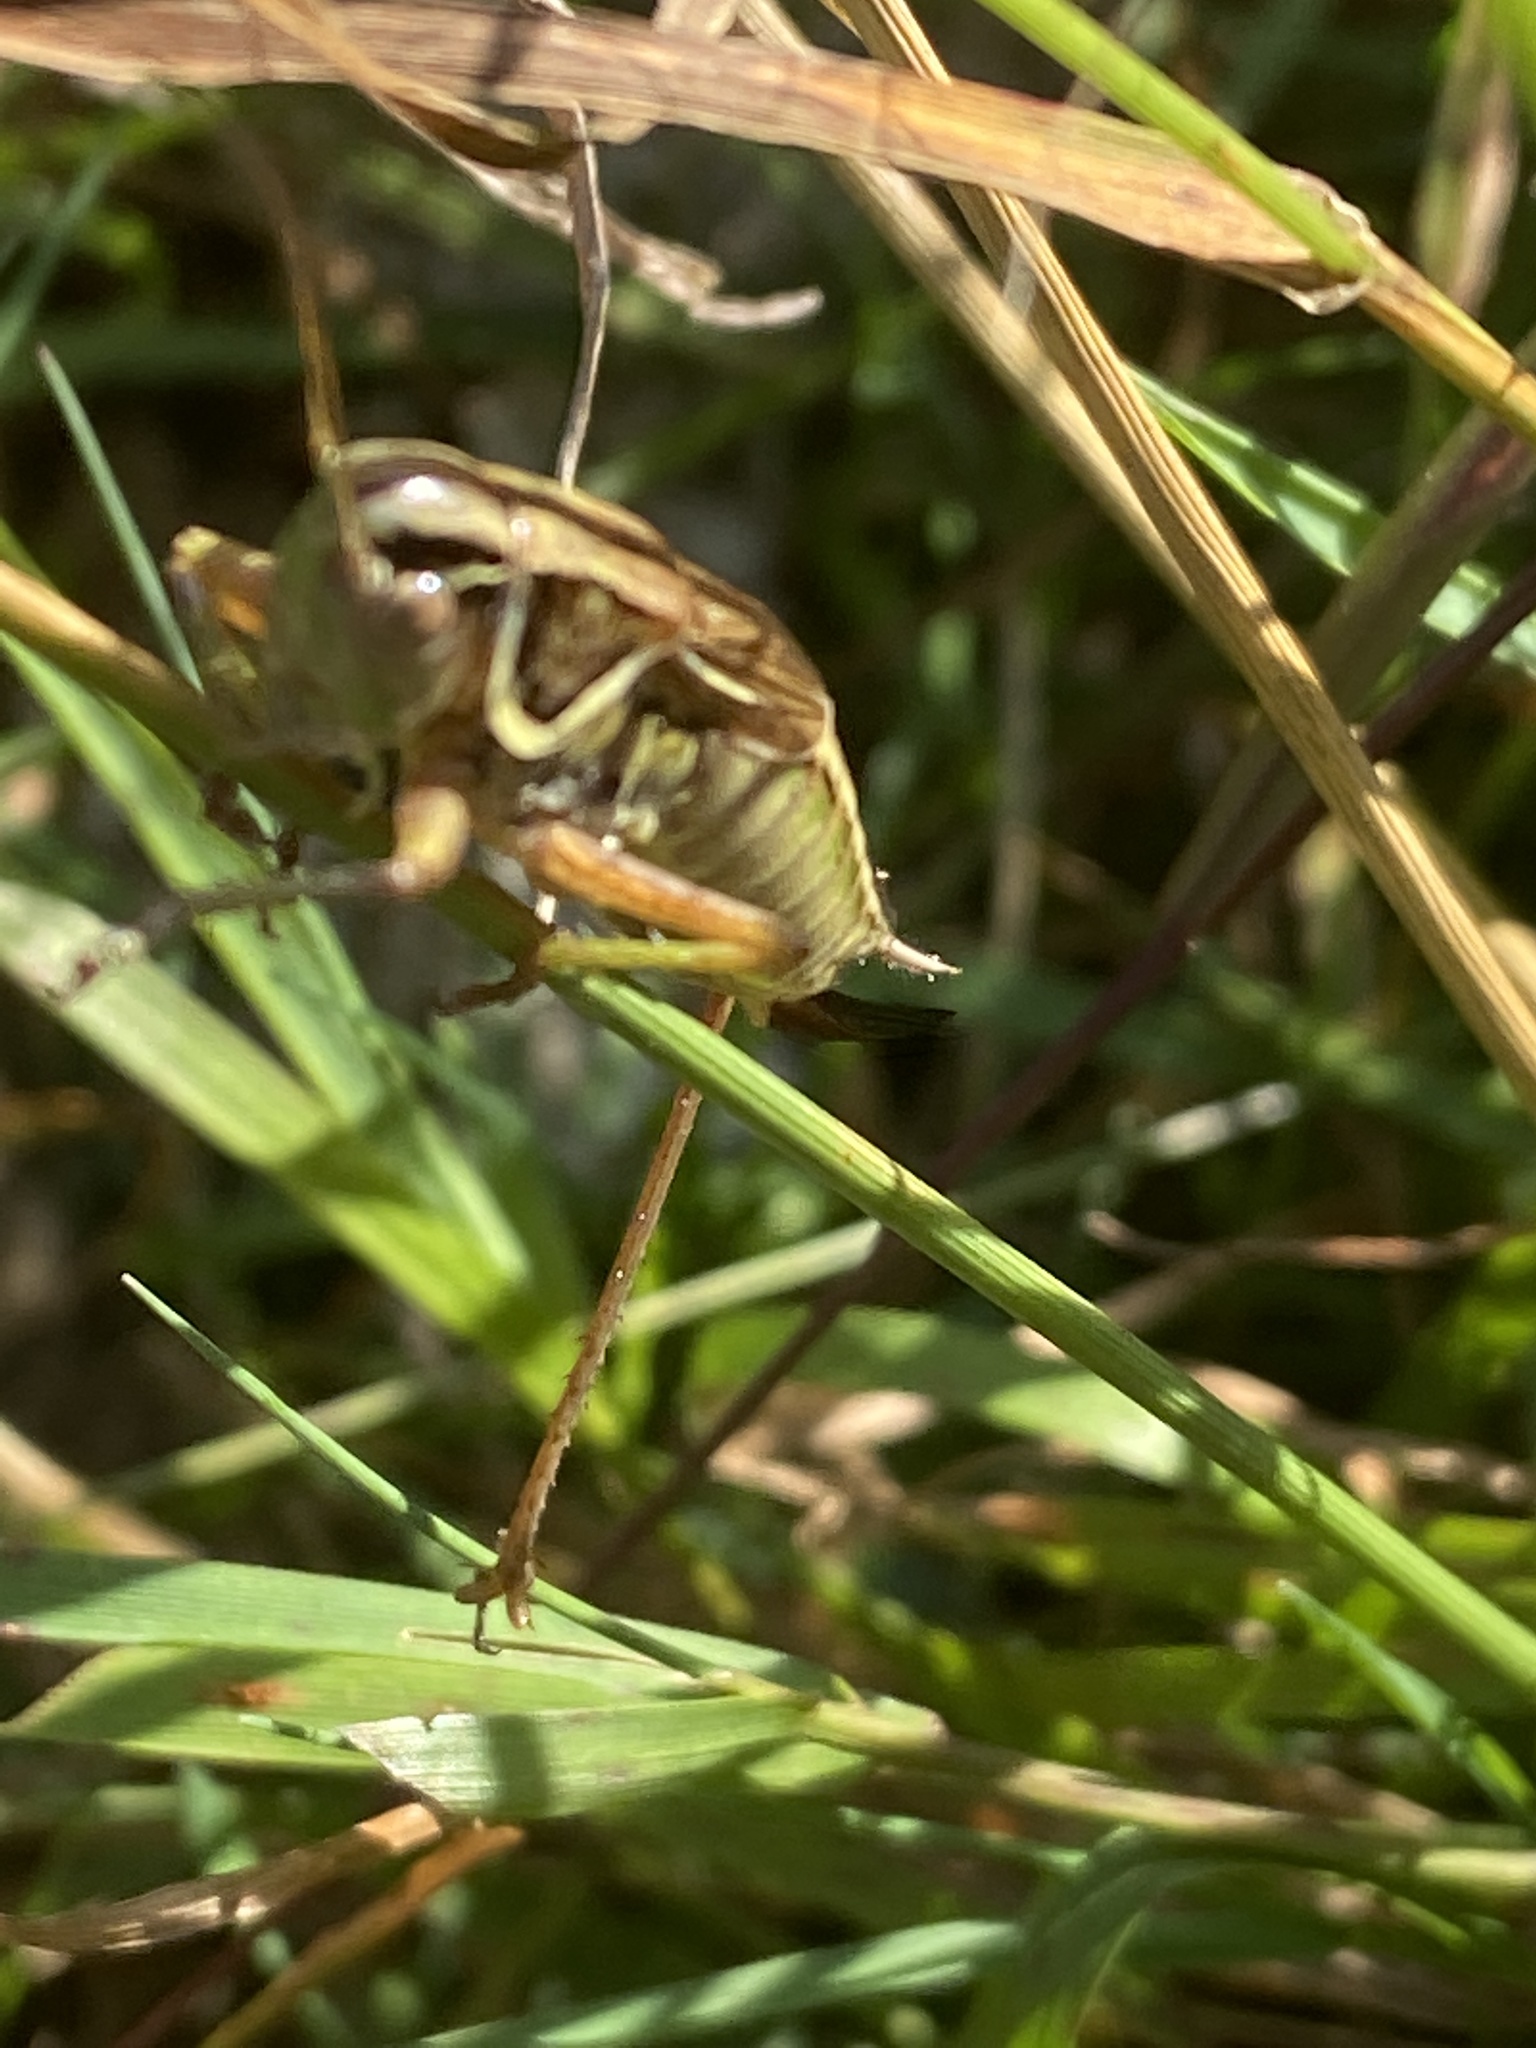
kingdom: Animalia
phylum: Arthropoda
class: Insecta
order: Orthoptera
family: Tettigoniidae
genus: Roeseliana
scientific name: Roeseliana roeselii
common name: Roesel's bush cricket
